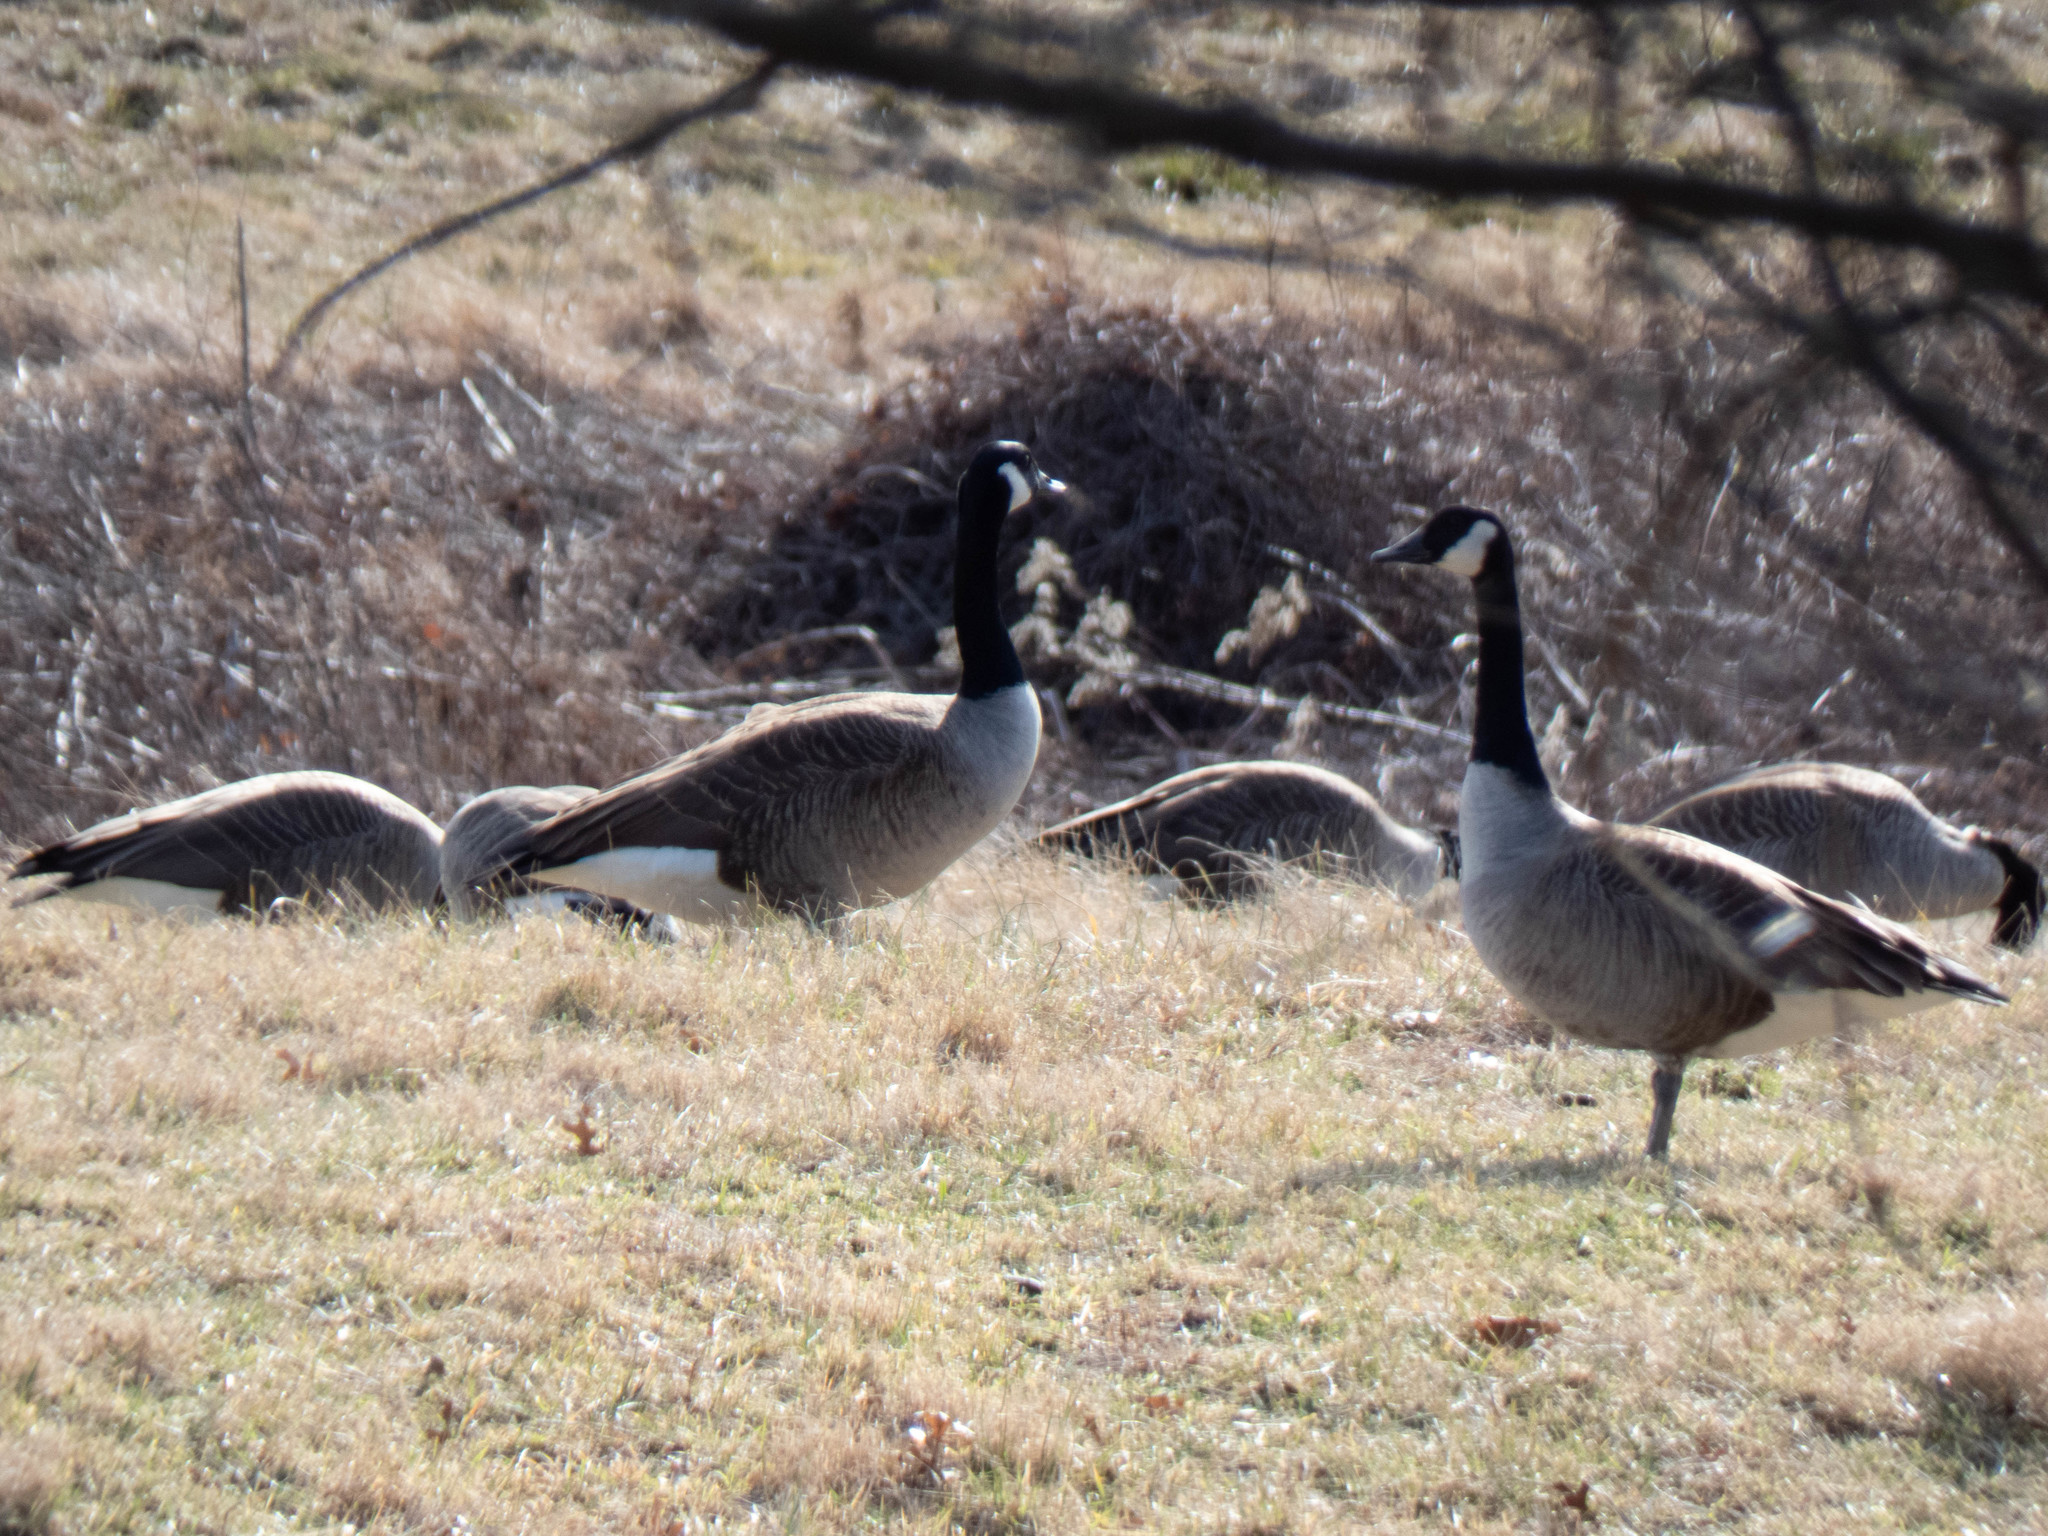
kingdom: Animalia
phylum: Chordata
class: Aves
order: Anseriformes
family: Anatidae
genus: Branta
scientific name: Branta canadensis
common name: Canada goose
